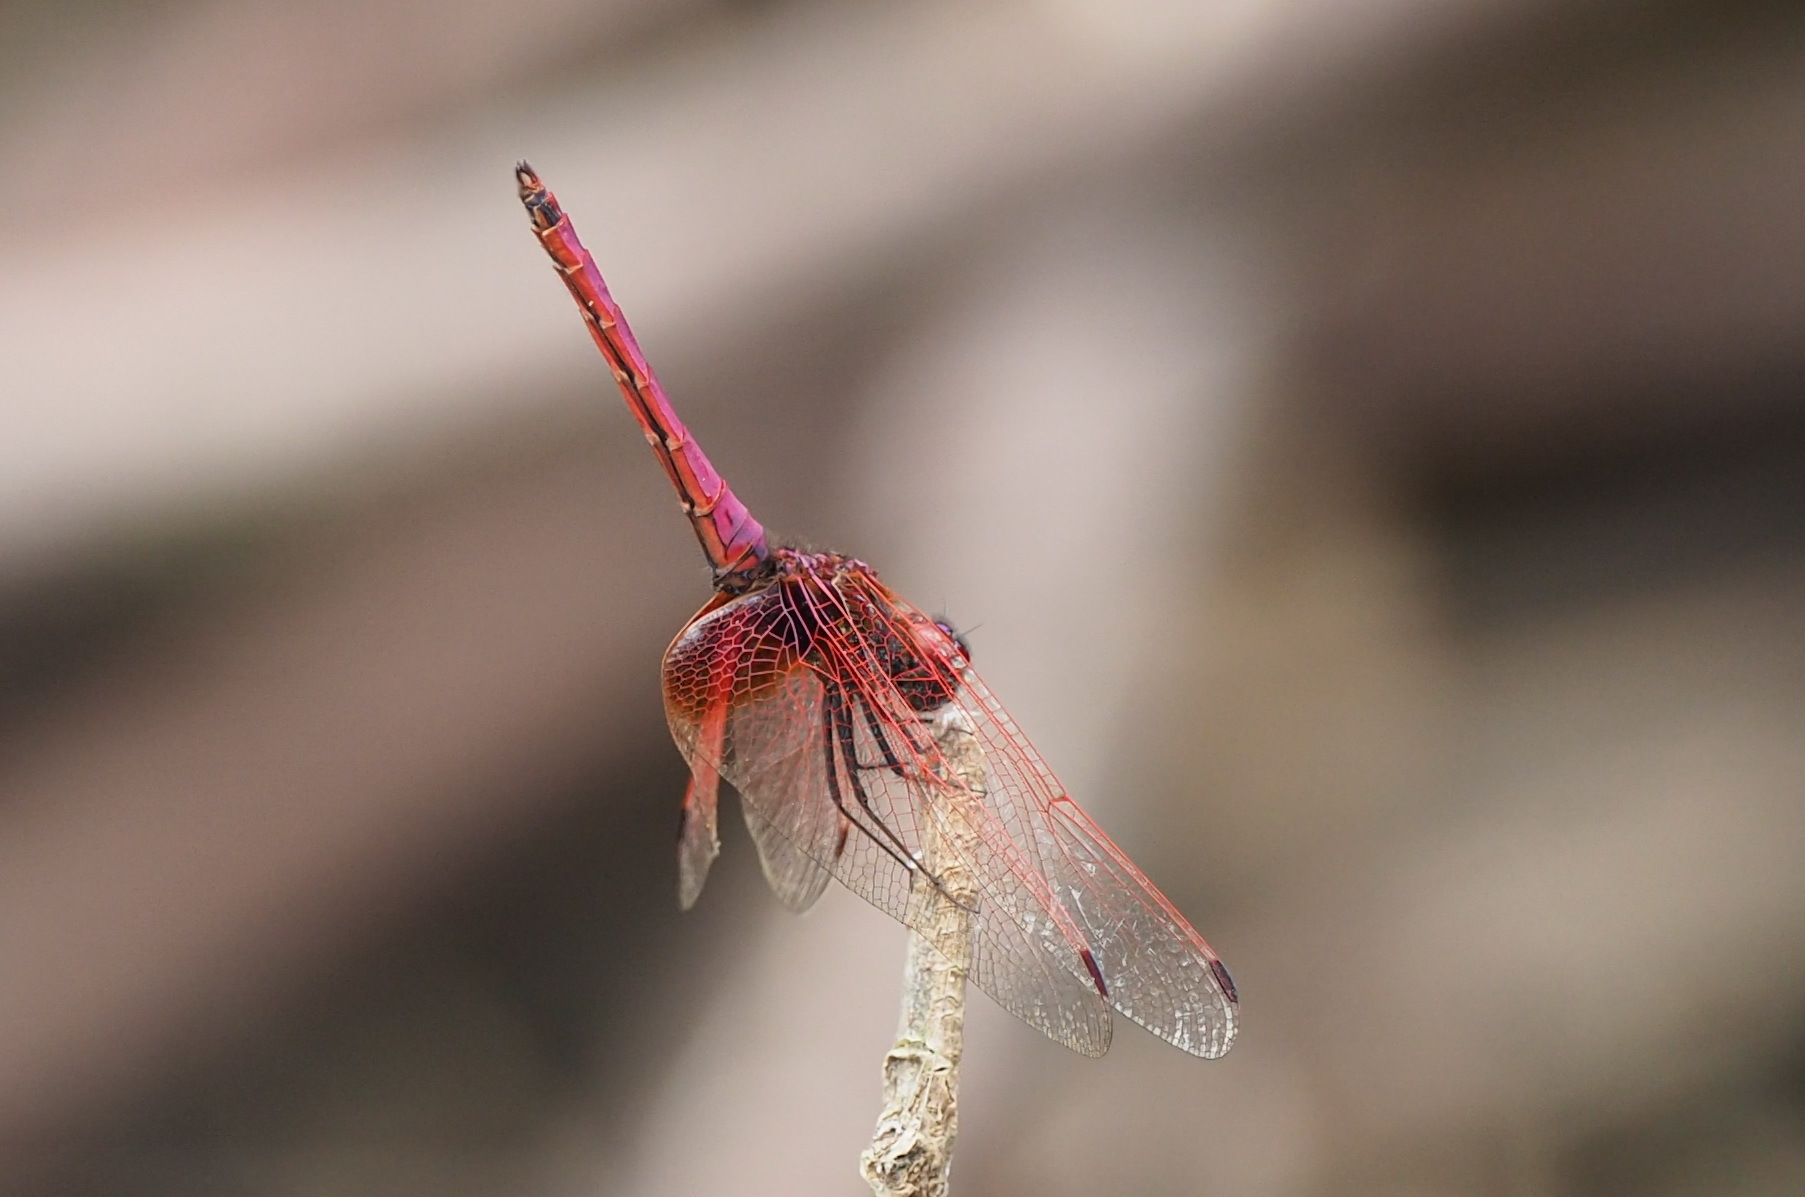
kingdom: Animalia
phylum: Arthropoda
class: Insecta
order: Odonata
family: Libellulidae
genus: Trithemis
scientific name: Trithemis aurora
